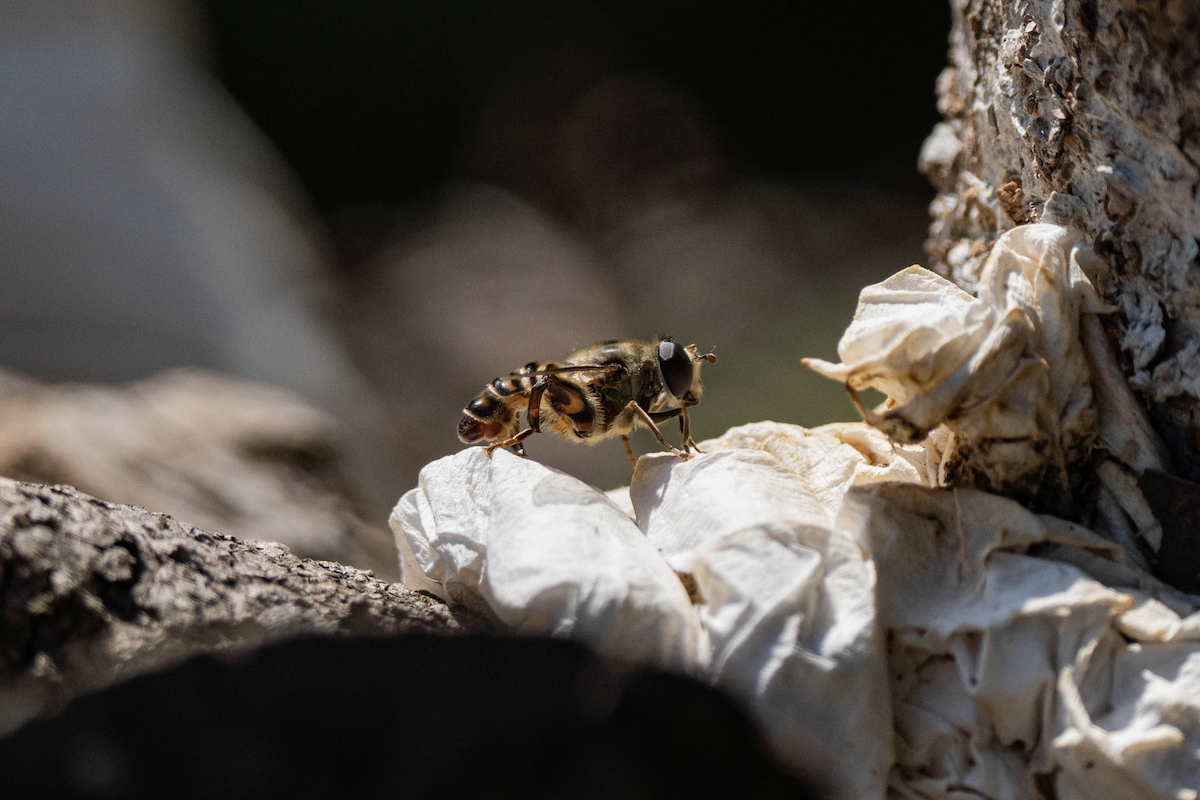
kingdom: Animalia
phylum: Arthropoda
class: Insecta
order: Diptera
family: Syrphidae
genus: Tigridemyia
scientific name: Tigridemyia curvigaster
